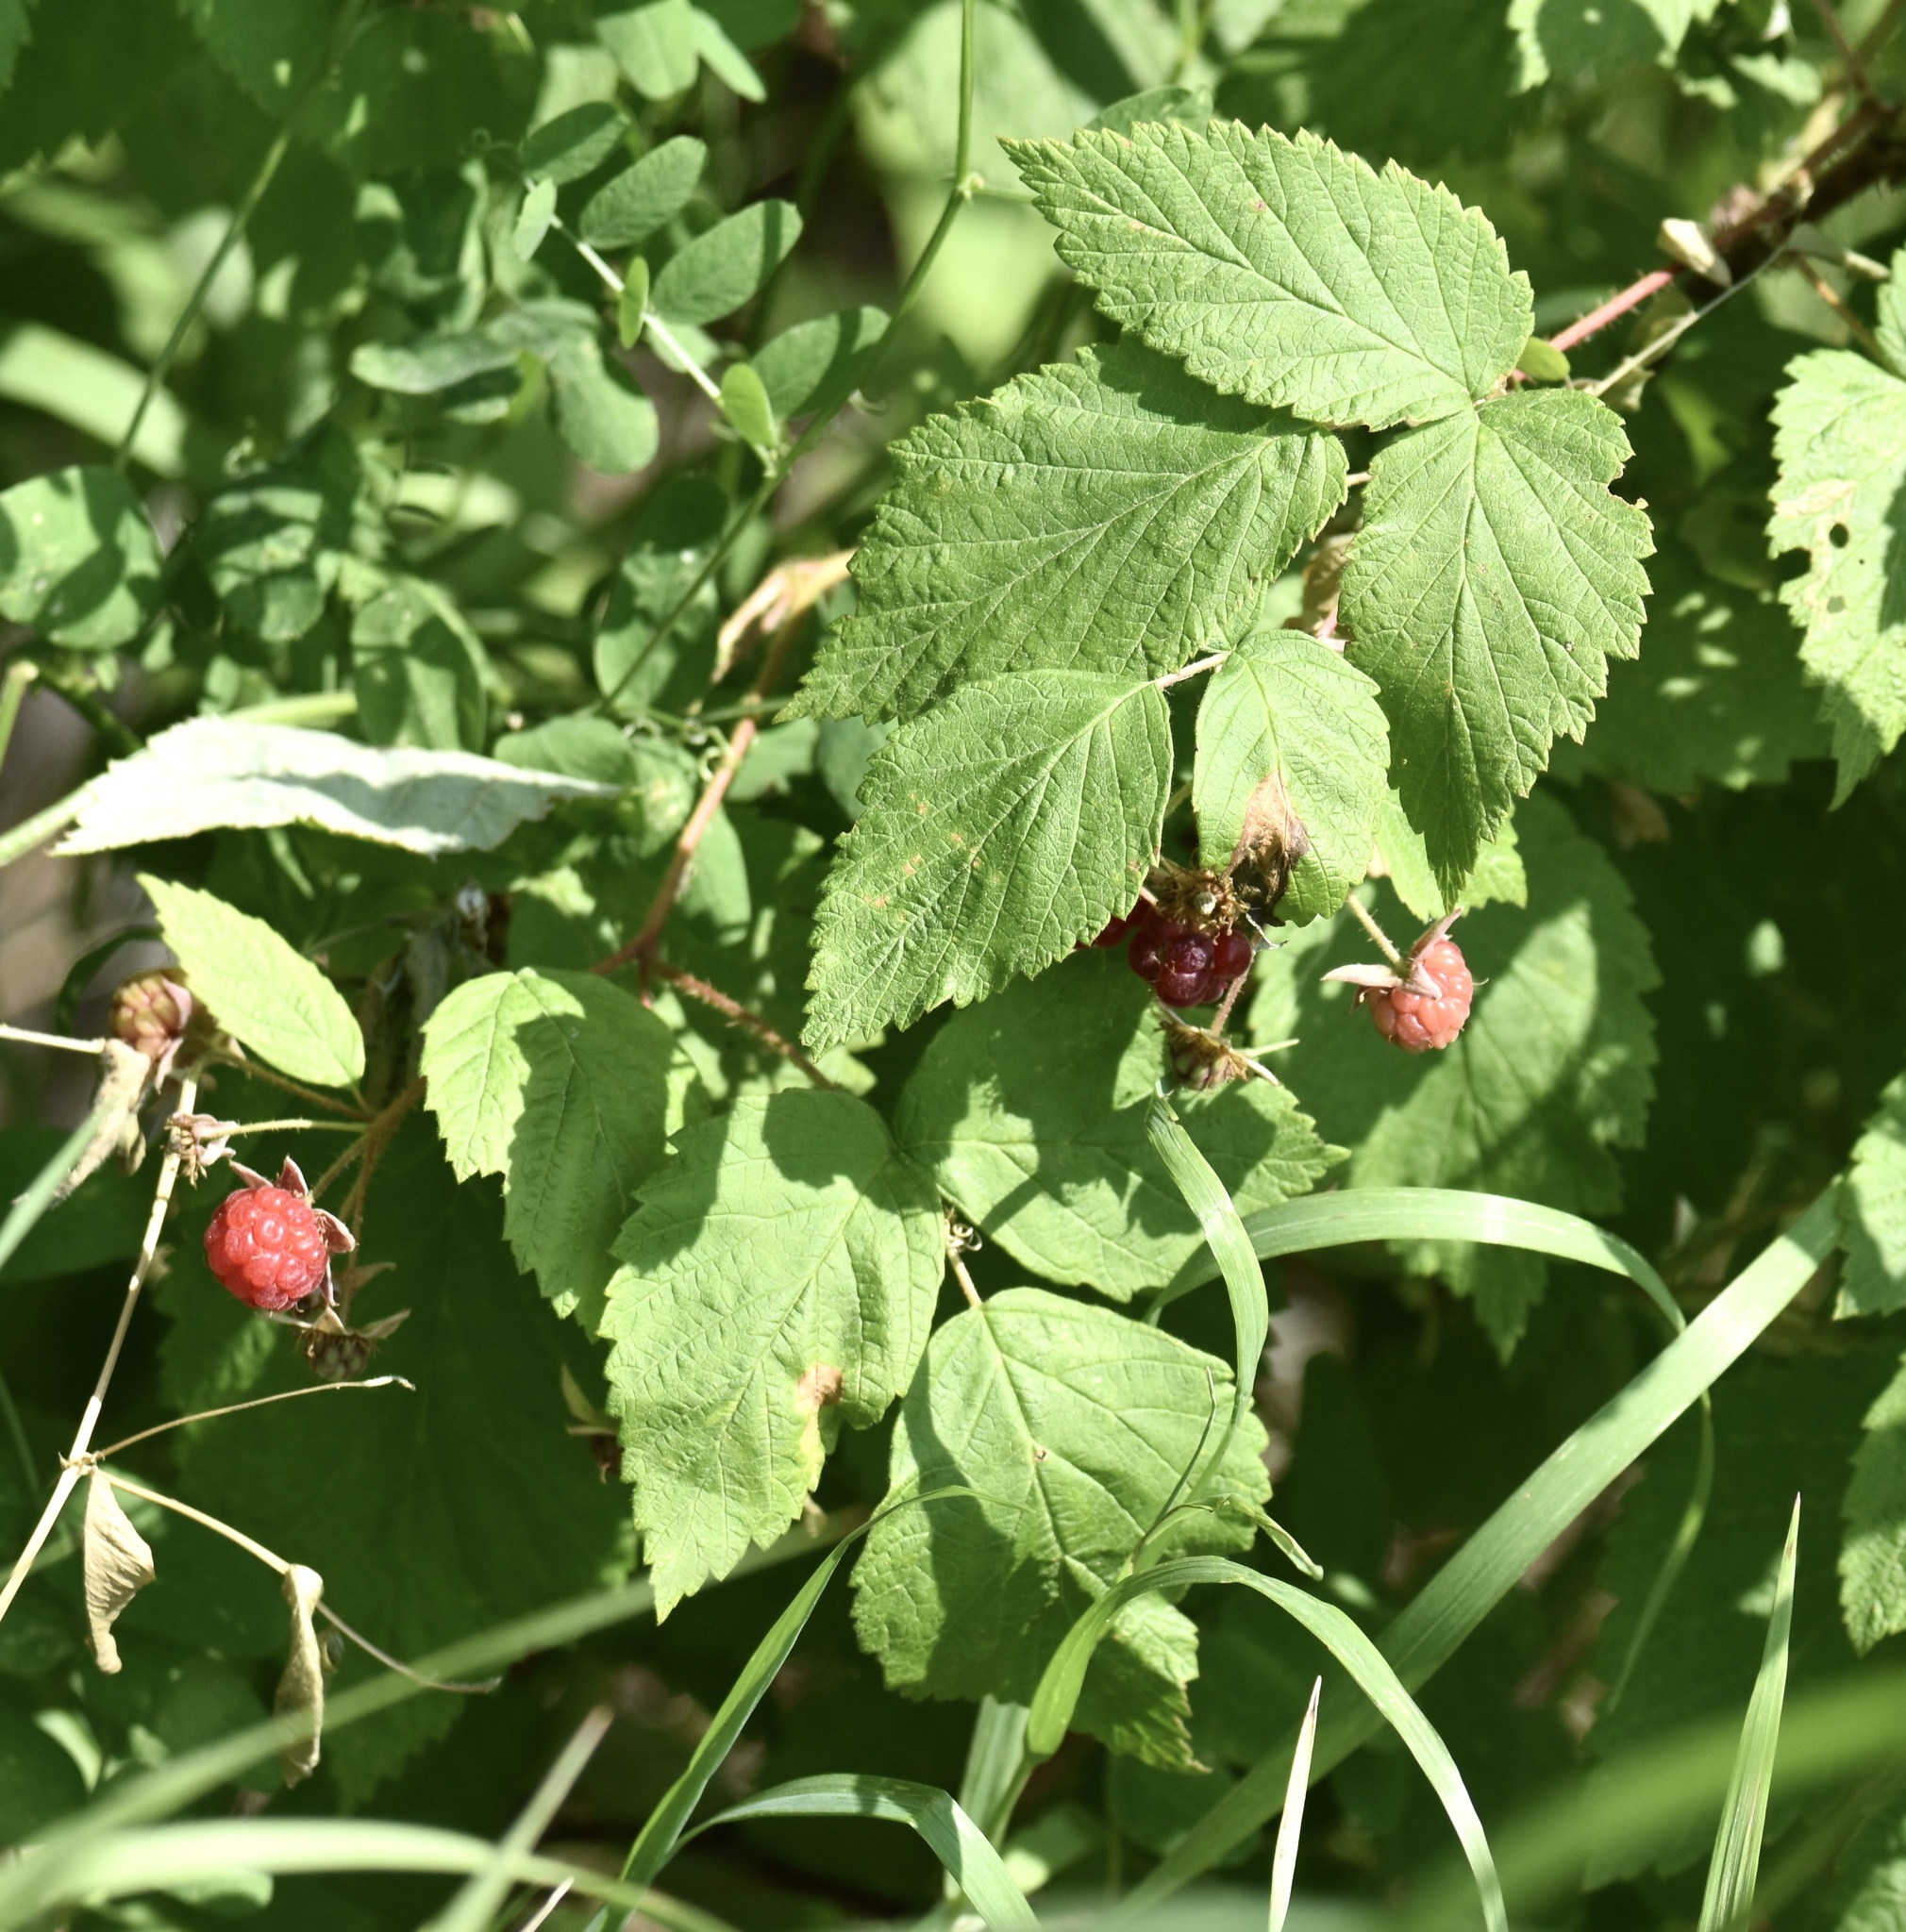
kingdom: Plantae
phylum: Tracheophyta
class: Magnoliopsida
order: Rosales
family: Rosaceae
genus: Rubus
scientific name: Rubus idaeus
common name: Raspberry
